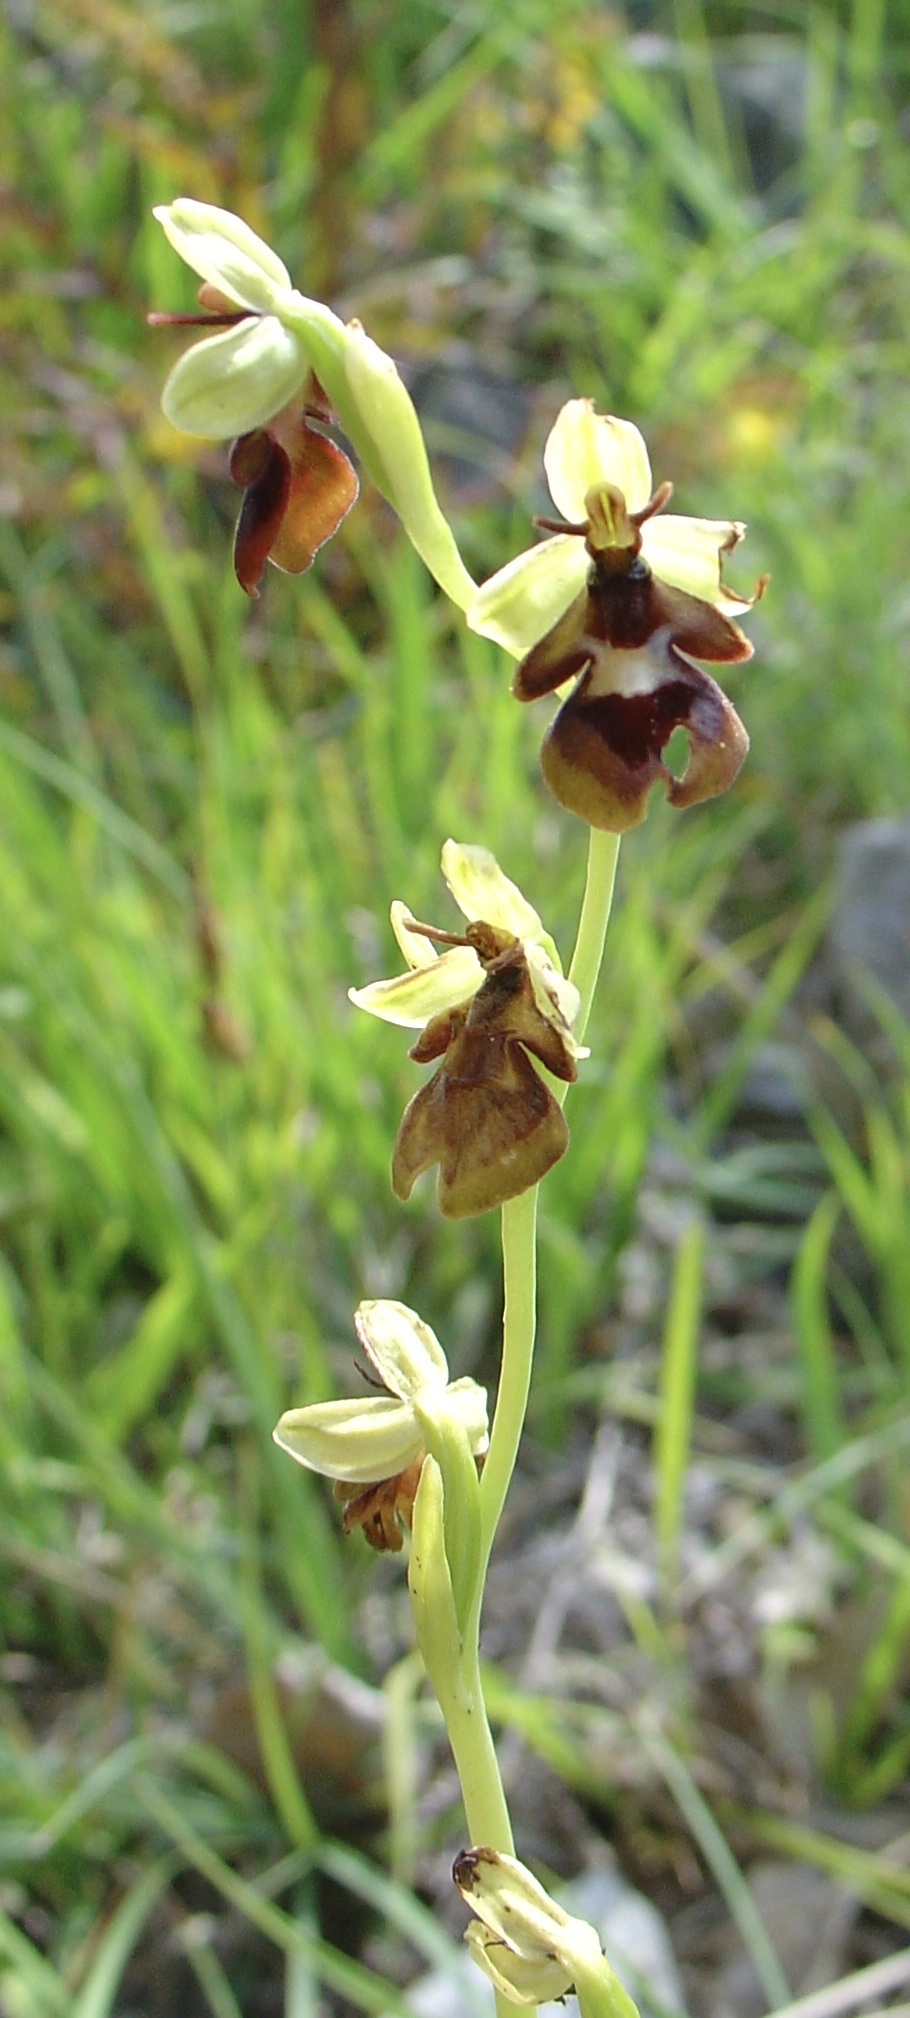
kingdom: Plantae
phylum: Tracheophyta
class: Liliopsida
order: Asparagales
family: Orchidaceae
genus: Ophrys
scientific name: Ophrys insectifera
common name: Fly orchid
